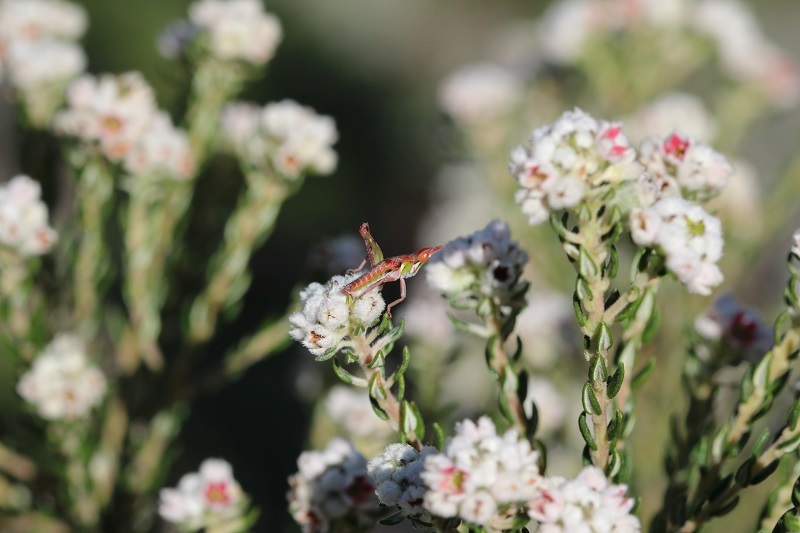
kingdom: Animalia
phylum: Arthropoda
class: Insecta
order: Orthoptera
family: Thericleidae
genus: Thericlesiella
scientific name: Thericlesiella meridionalis
